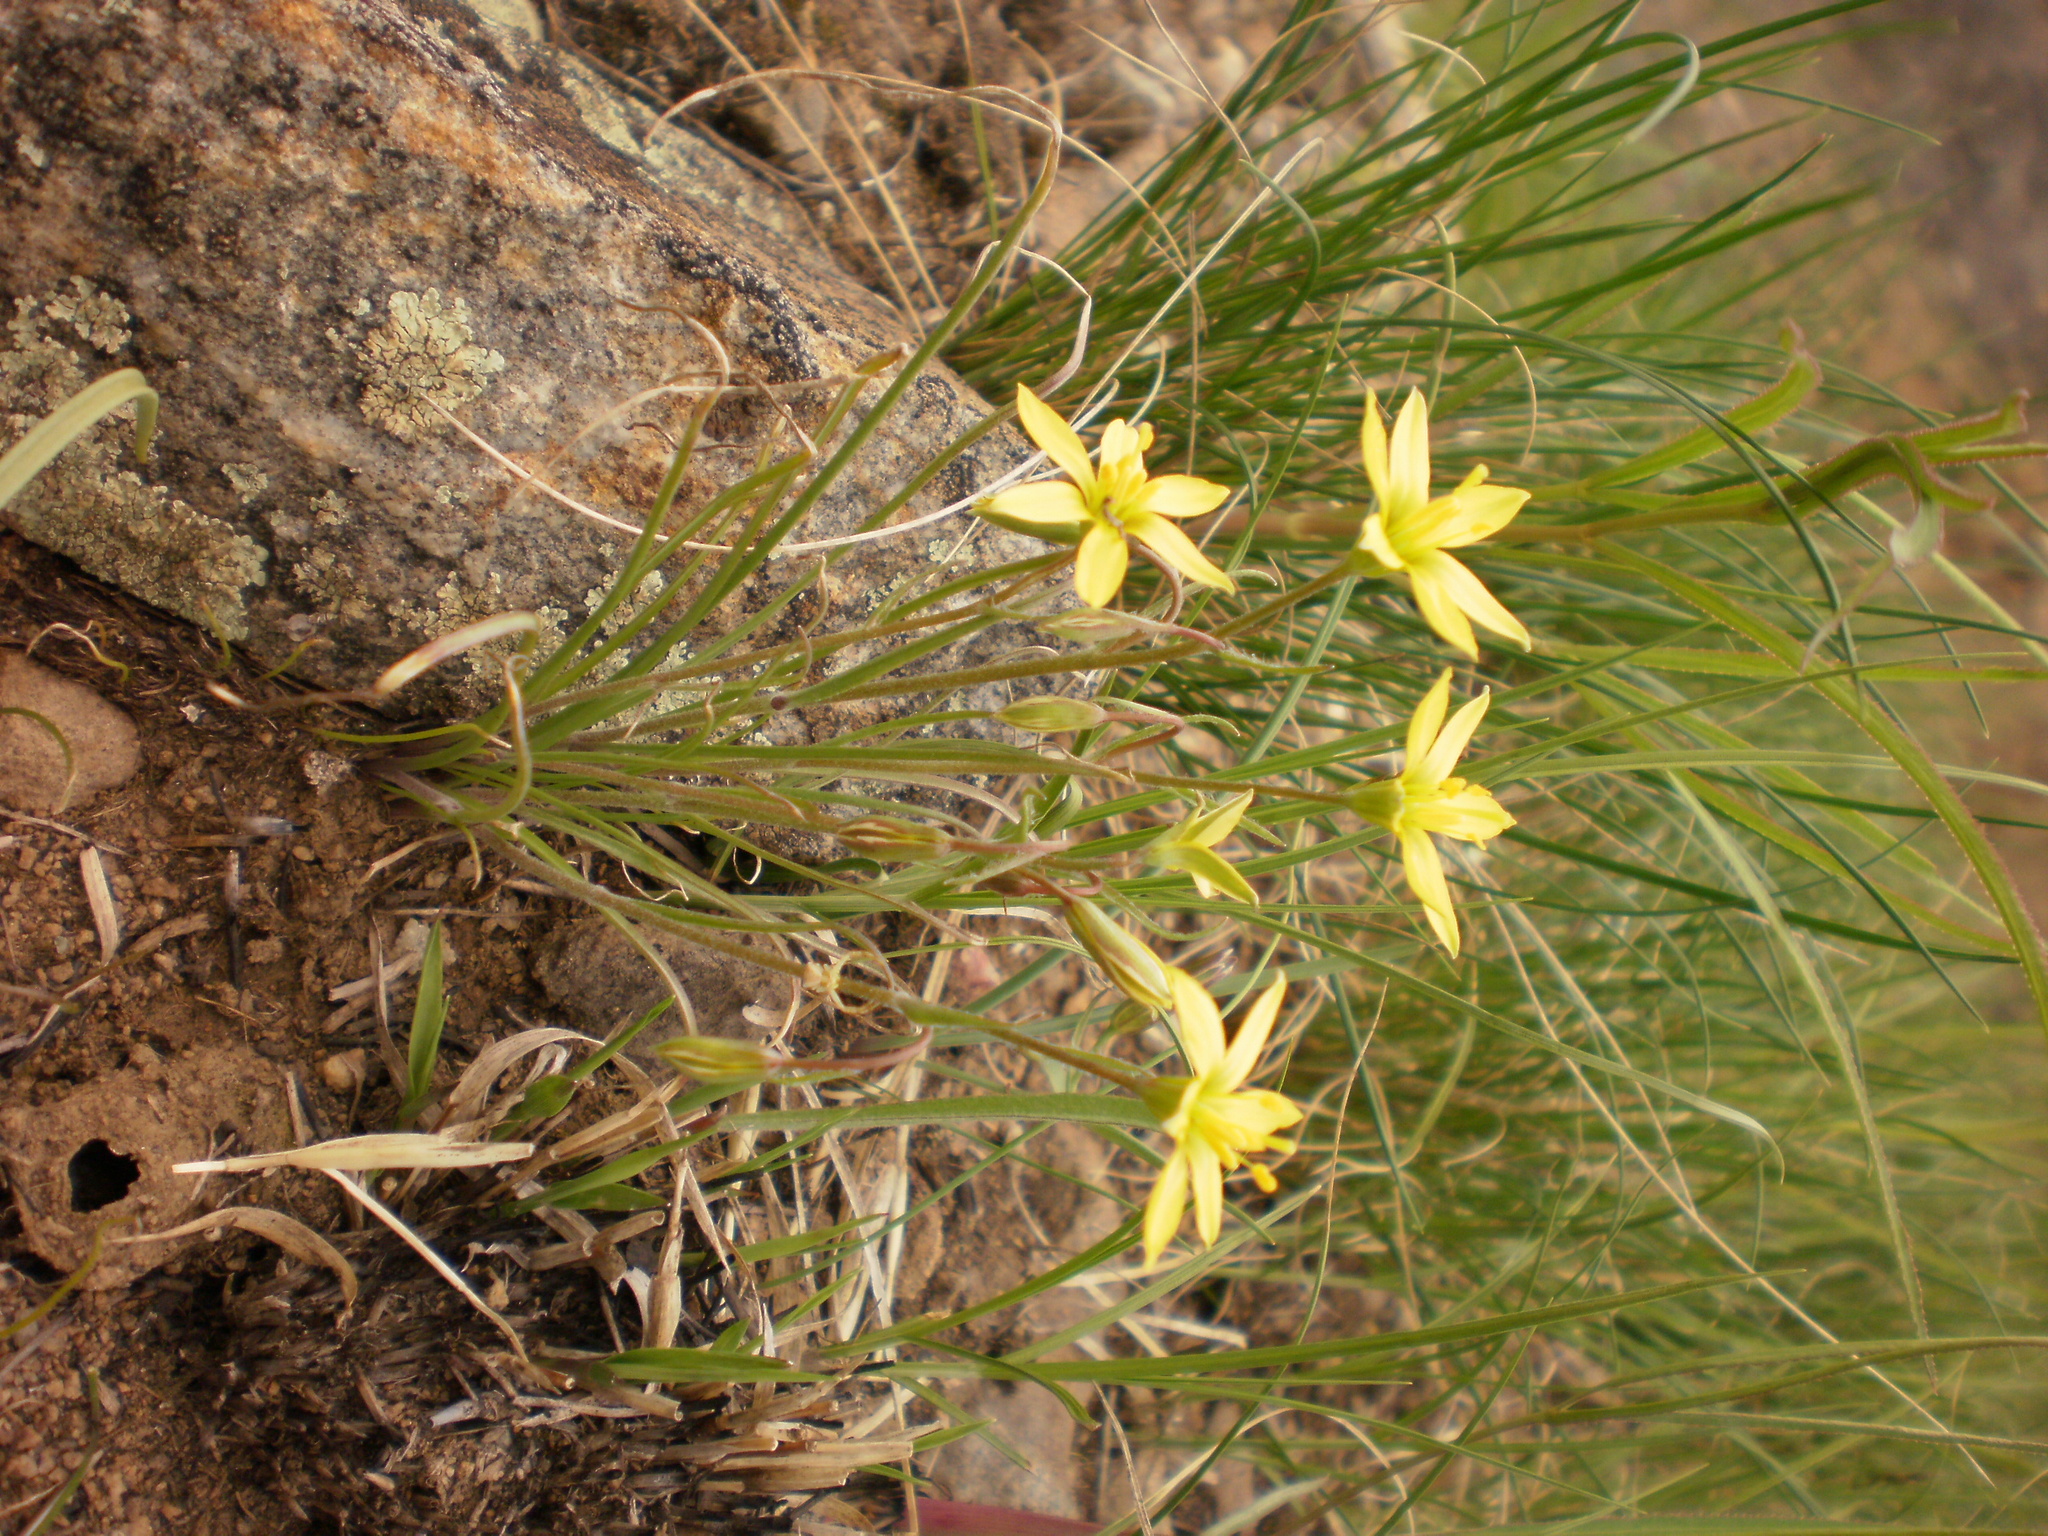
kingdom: Plantae
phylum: Tracheophyta
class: Liliopsida
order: Liliales
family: Liliaceae
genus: Gagea
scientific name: Gagea bulbifera
